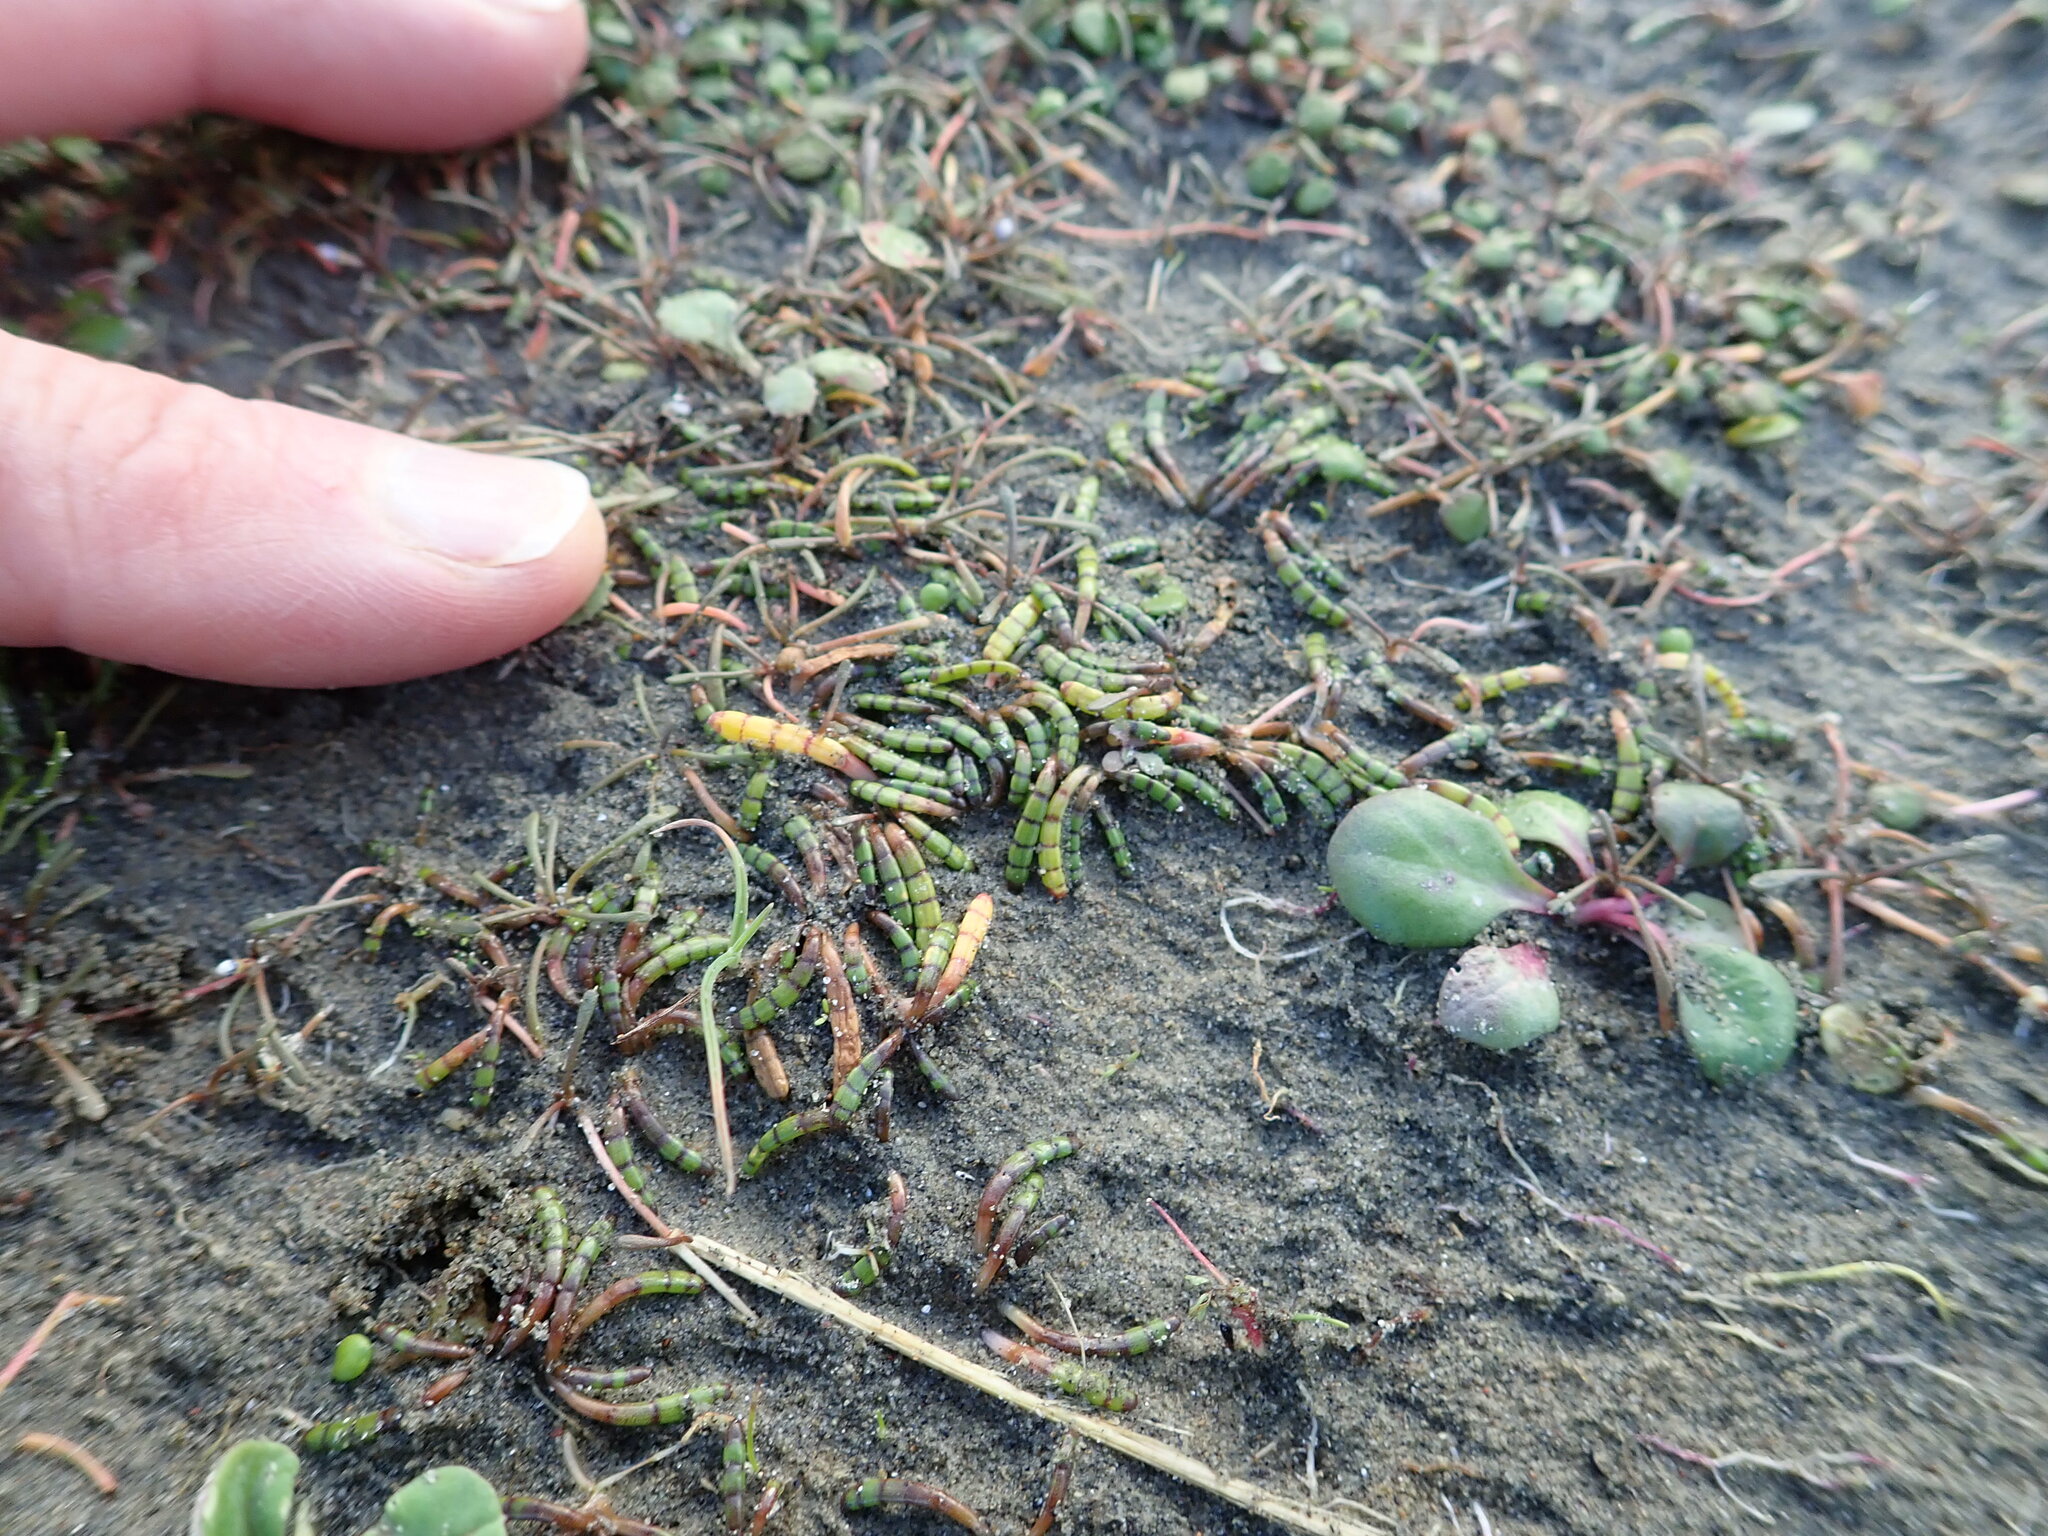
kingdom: Plantae
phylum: Tracheophyta
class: Magnoliopsida
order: Apiales
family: Apiaceae
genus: Lilaeopsis
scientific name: Lilaeopsis novae-zelandiae
